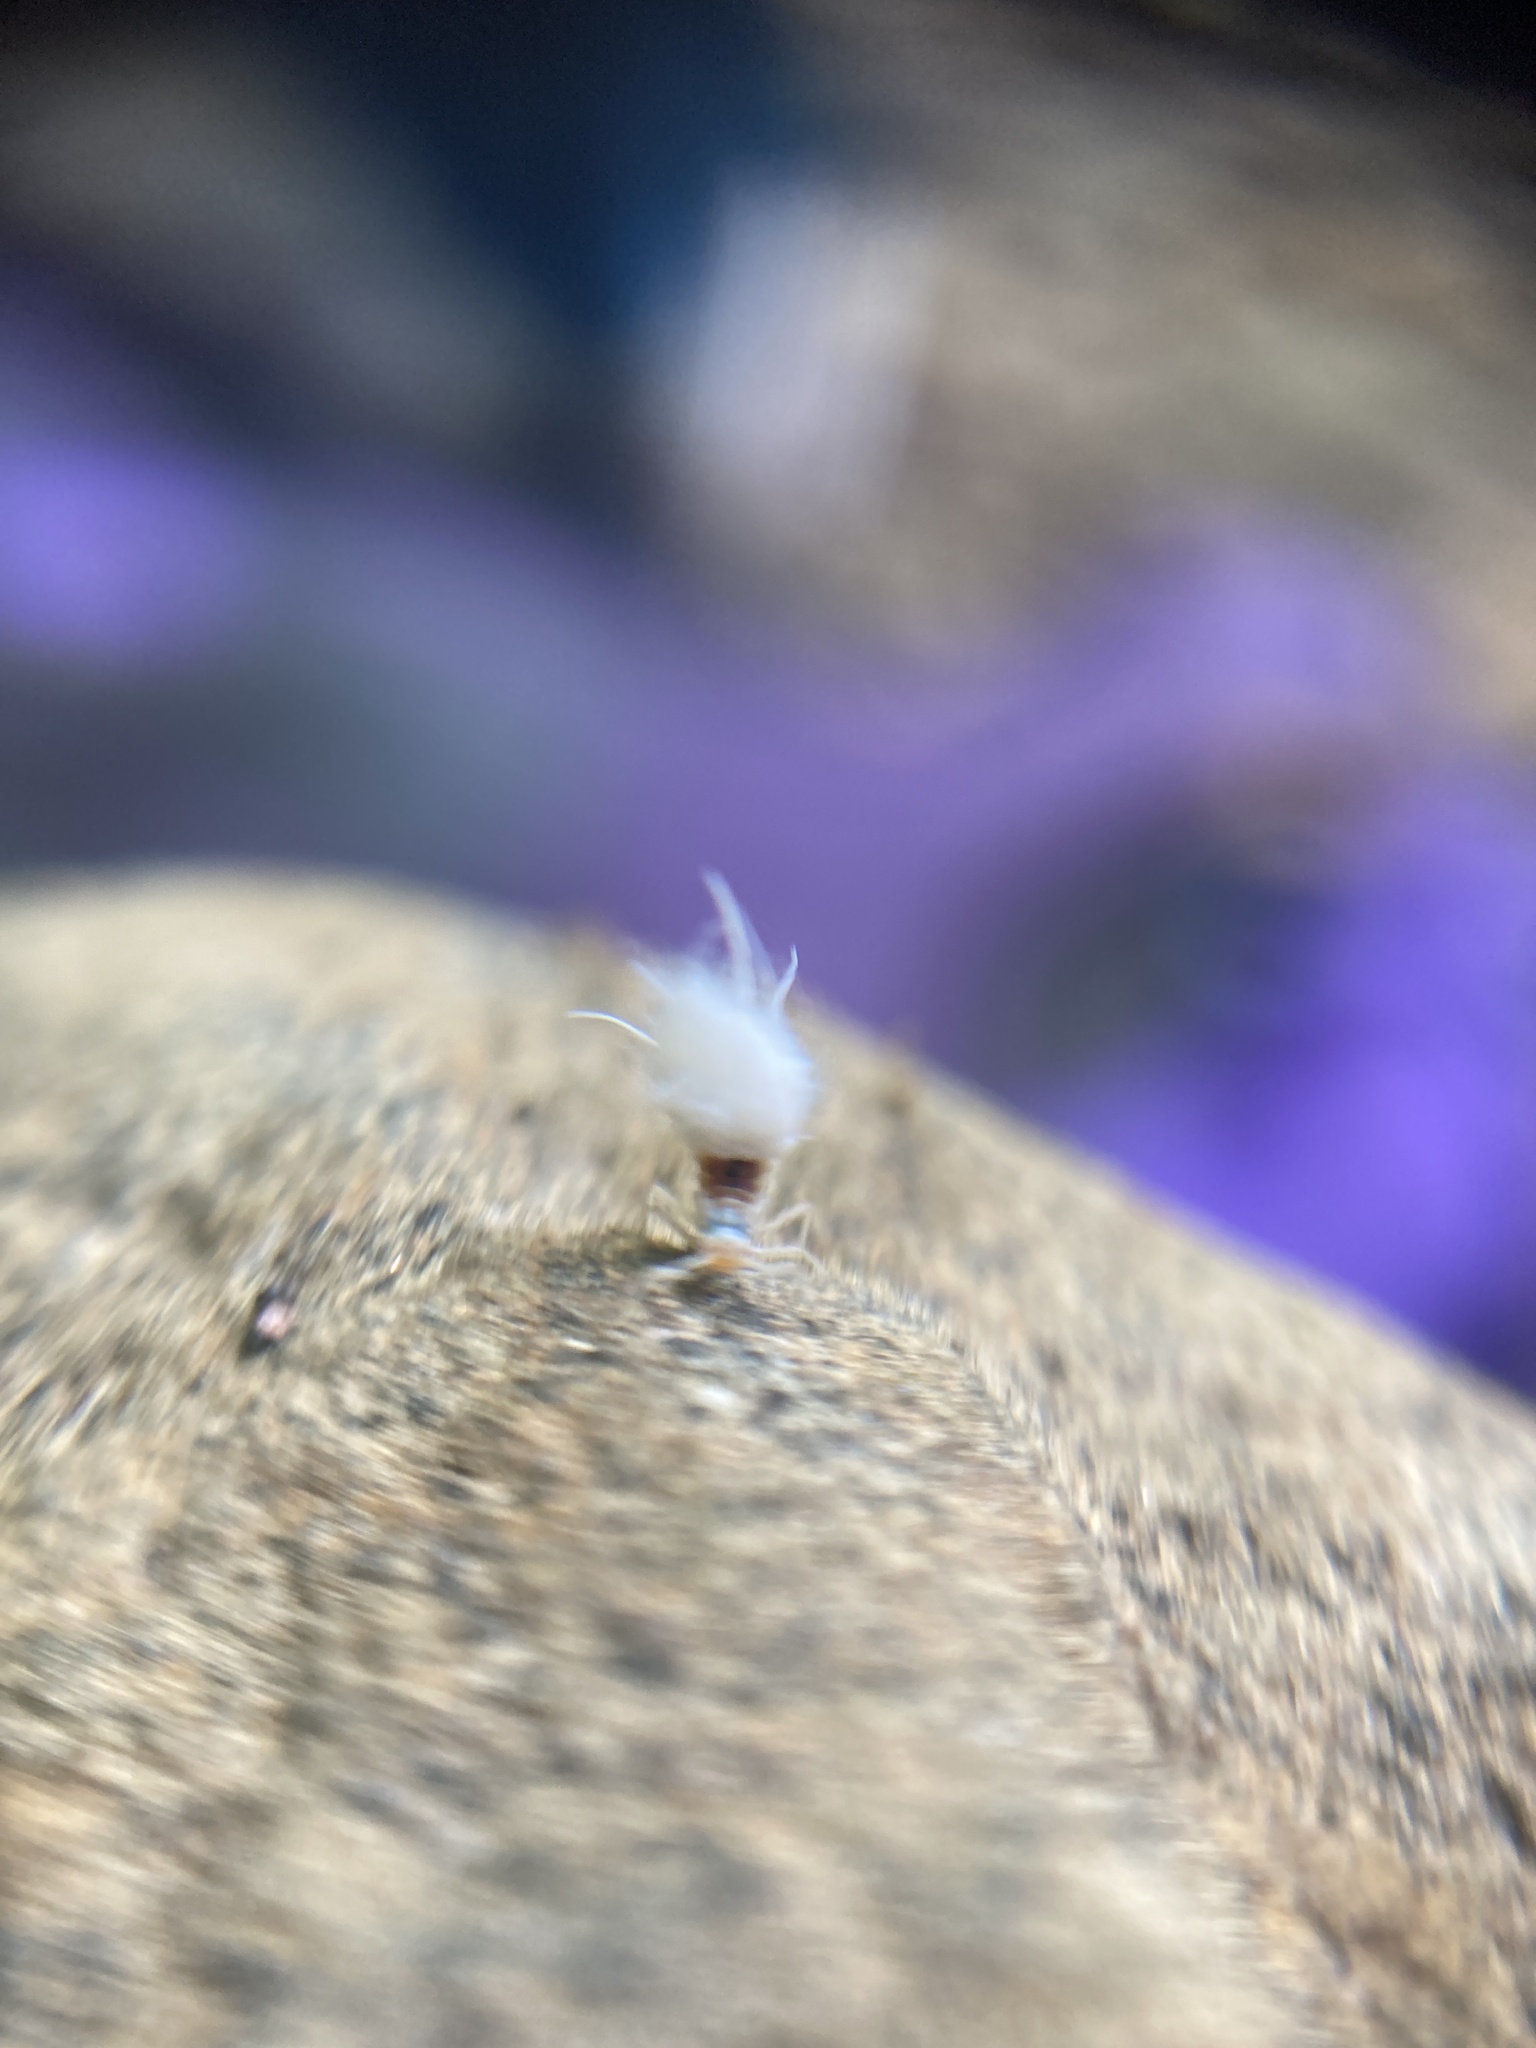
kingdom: Animalia
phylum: Arthropoda
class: Insecta
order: Hemiptera
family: Aphididae
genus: Grylloprociphilus
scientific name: Grylloprociphilus imbricator
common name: Beech blight aphid
